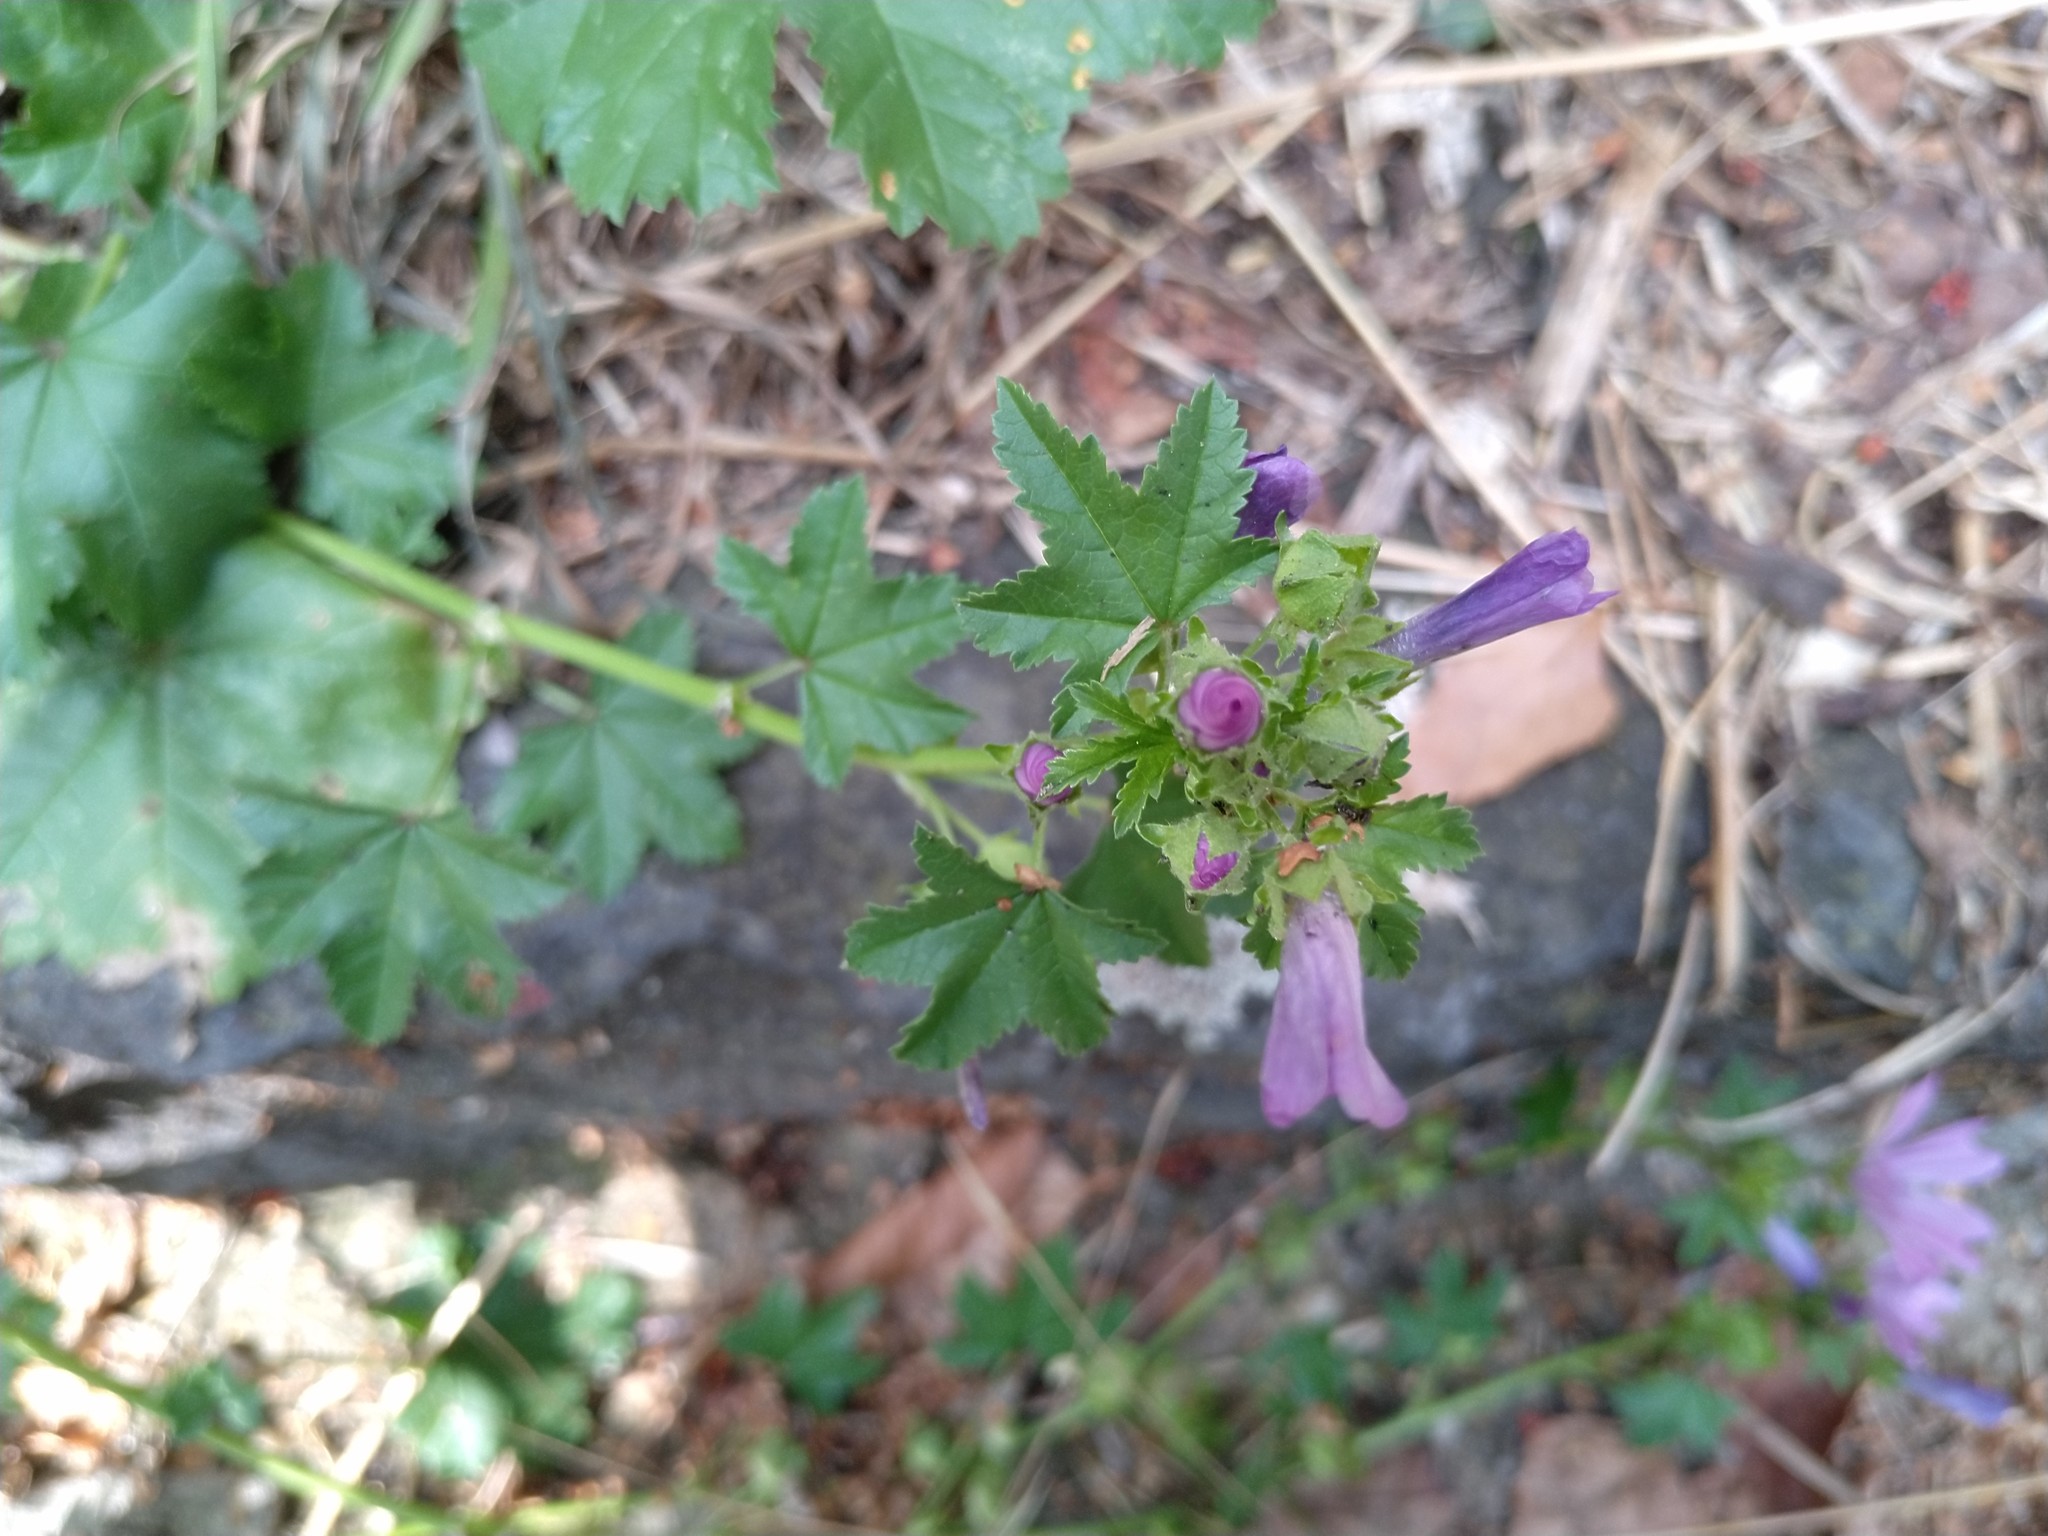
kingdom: Plantae
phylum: Tracheophyta
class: Magnoliopsida
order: Malvales
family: Malvaceae
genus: Malva
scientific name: Malva sylvestris
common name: Common mallow
